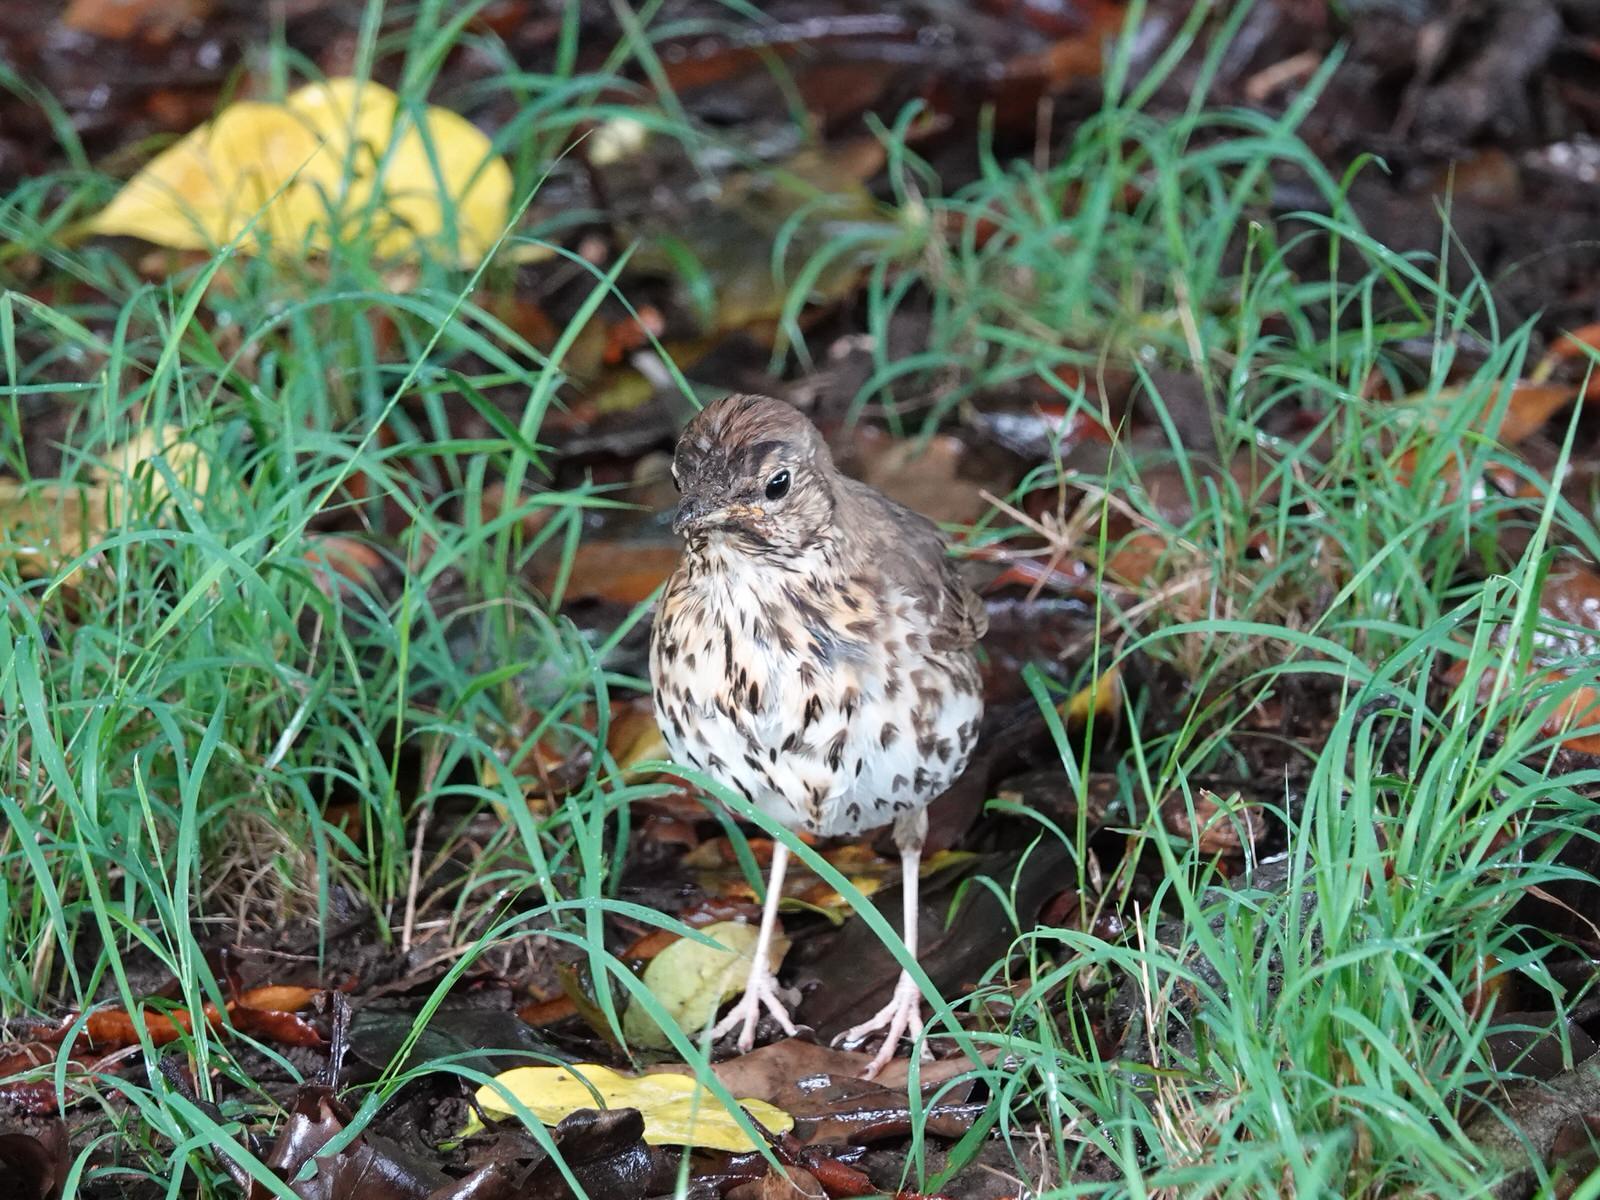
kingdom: Animalia
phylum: Chordata
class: Aves
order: Passeriformes
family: Turdidae
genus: Turdus
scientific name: Turdus philomelos
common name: Song thrush
